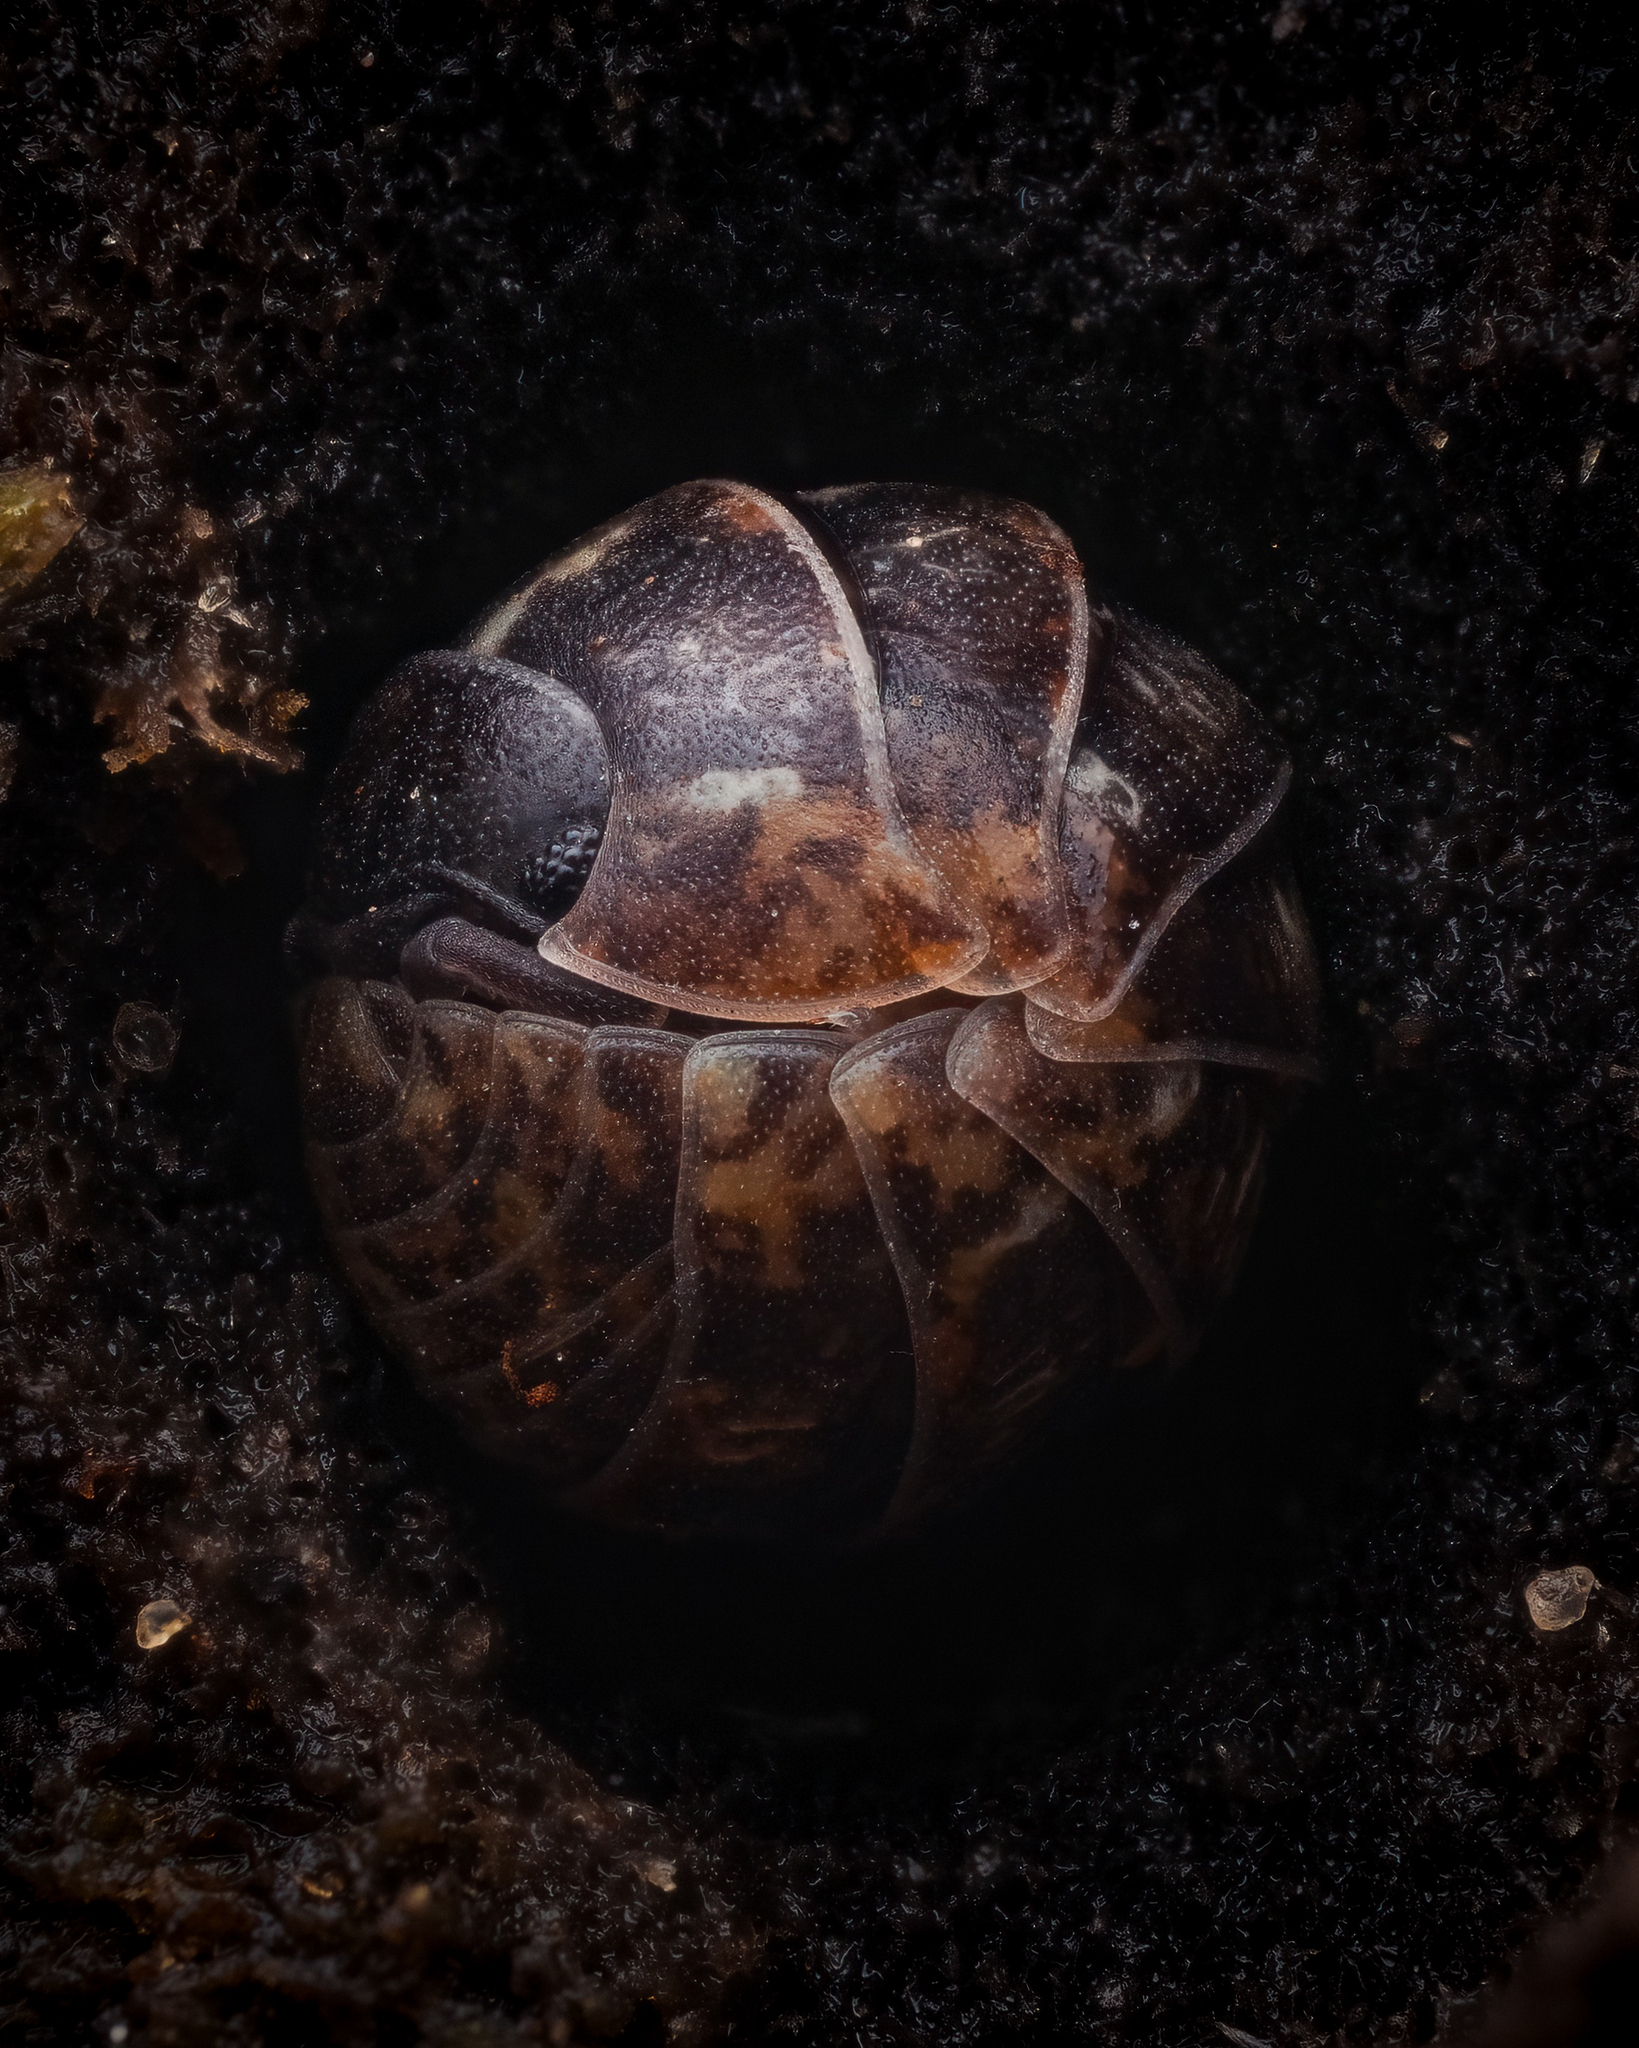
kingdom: Animalia
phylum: Arthropoda
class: Malacostraca
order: Isopoda
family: Armadillidiidae
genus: Armadillidium
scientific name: Armadillidium vulgare
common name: Common pill woodlouse
